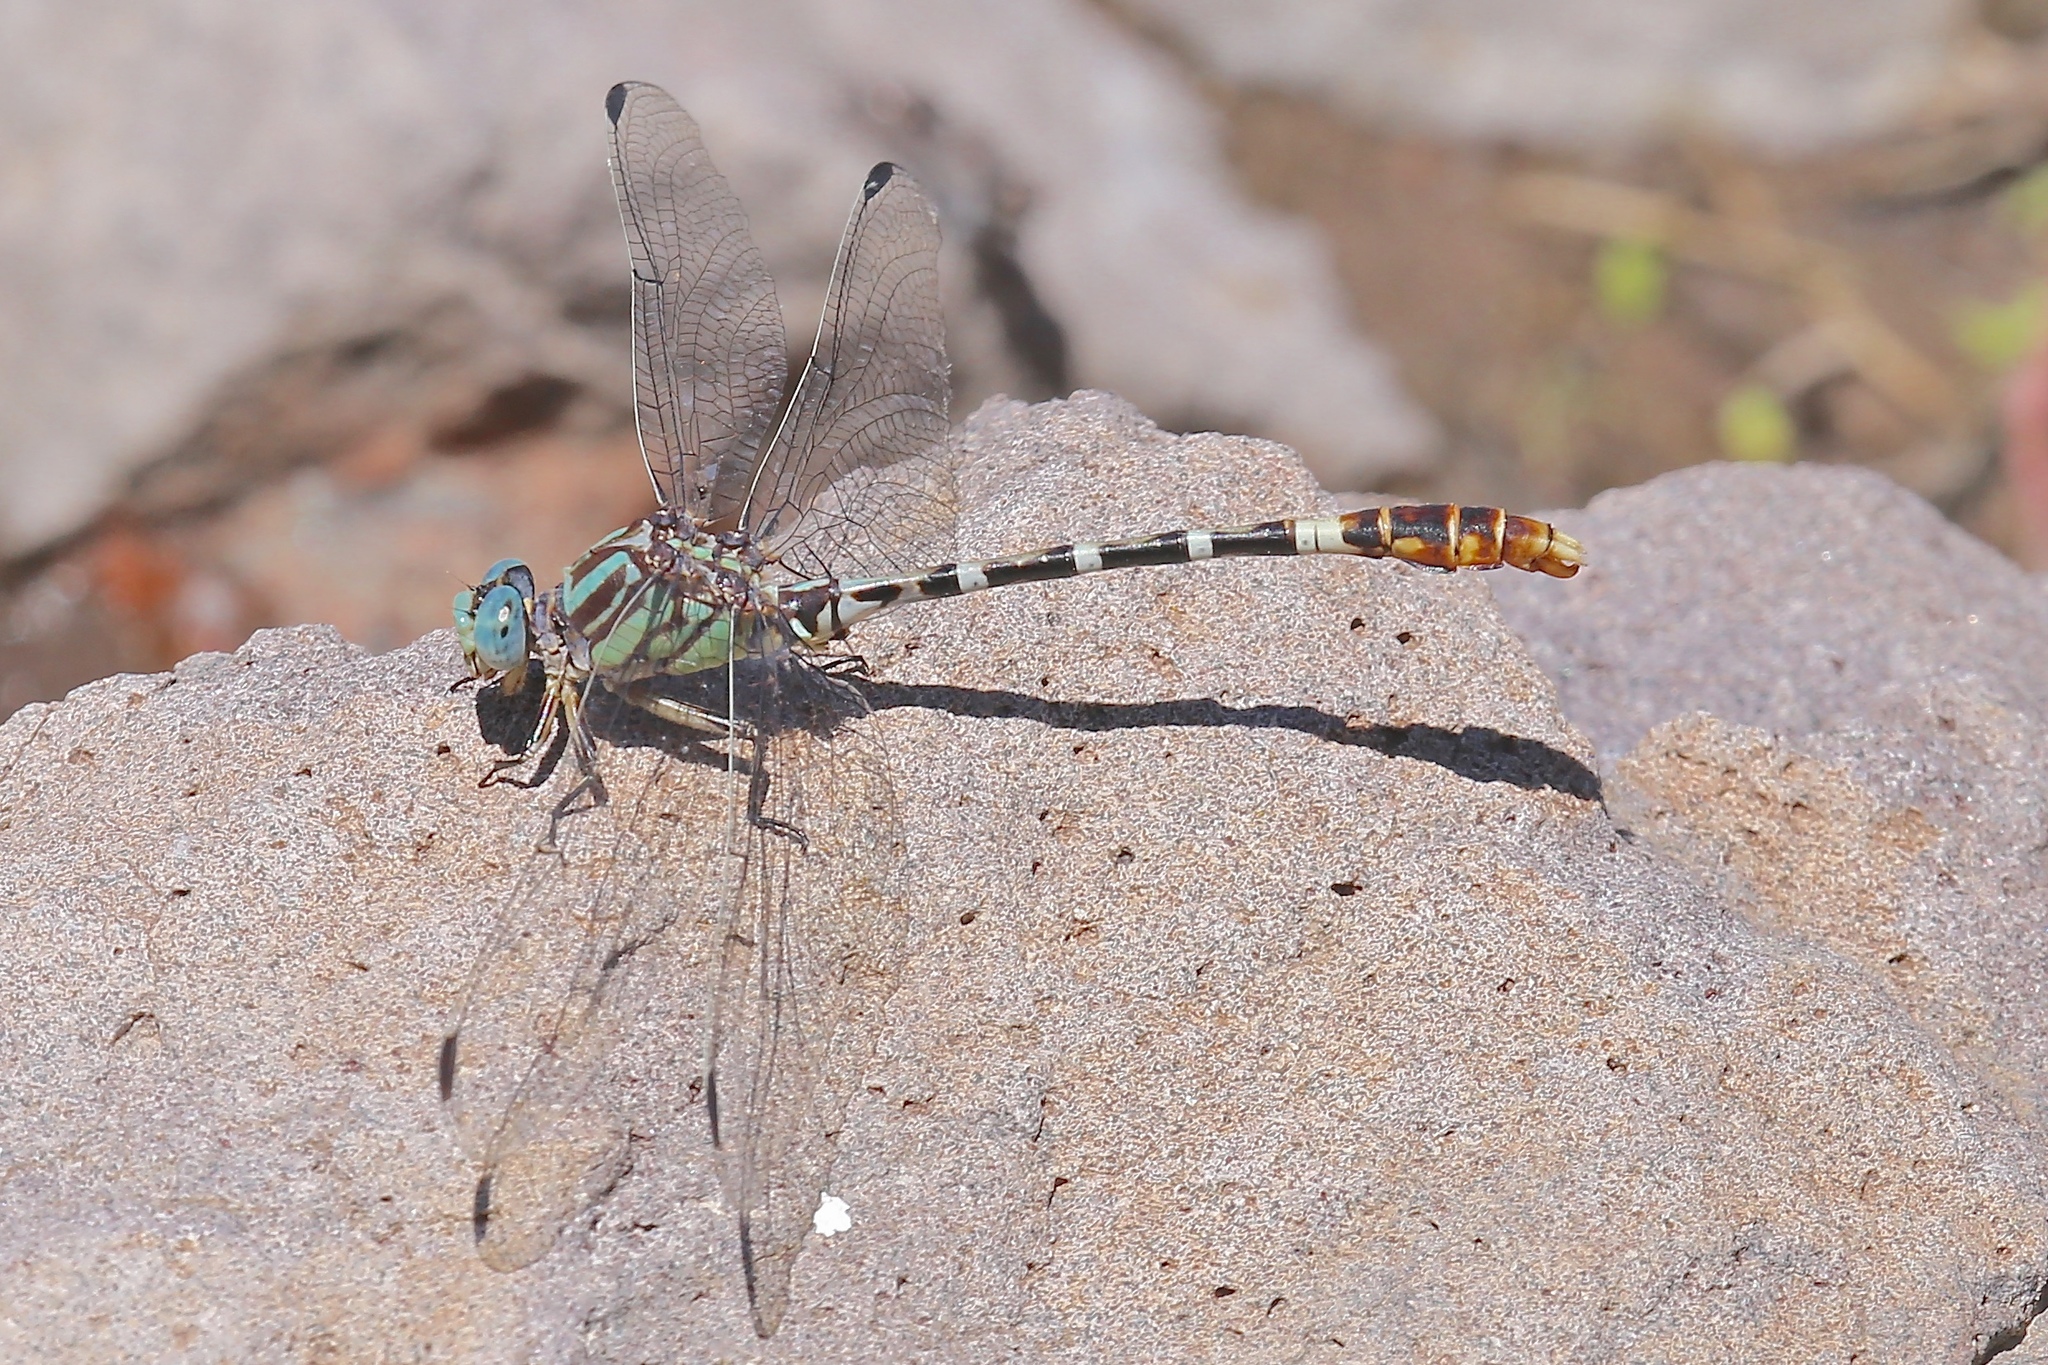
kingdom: Animalia
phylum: Arthropoda
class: Insecta
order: Odonata
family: Gomphidae
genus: Erpetogomphus
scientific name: Erpetogomphus lampropeltis
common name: Serpent ringtail
